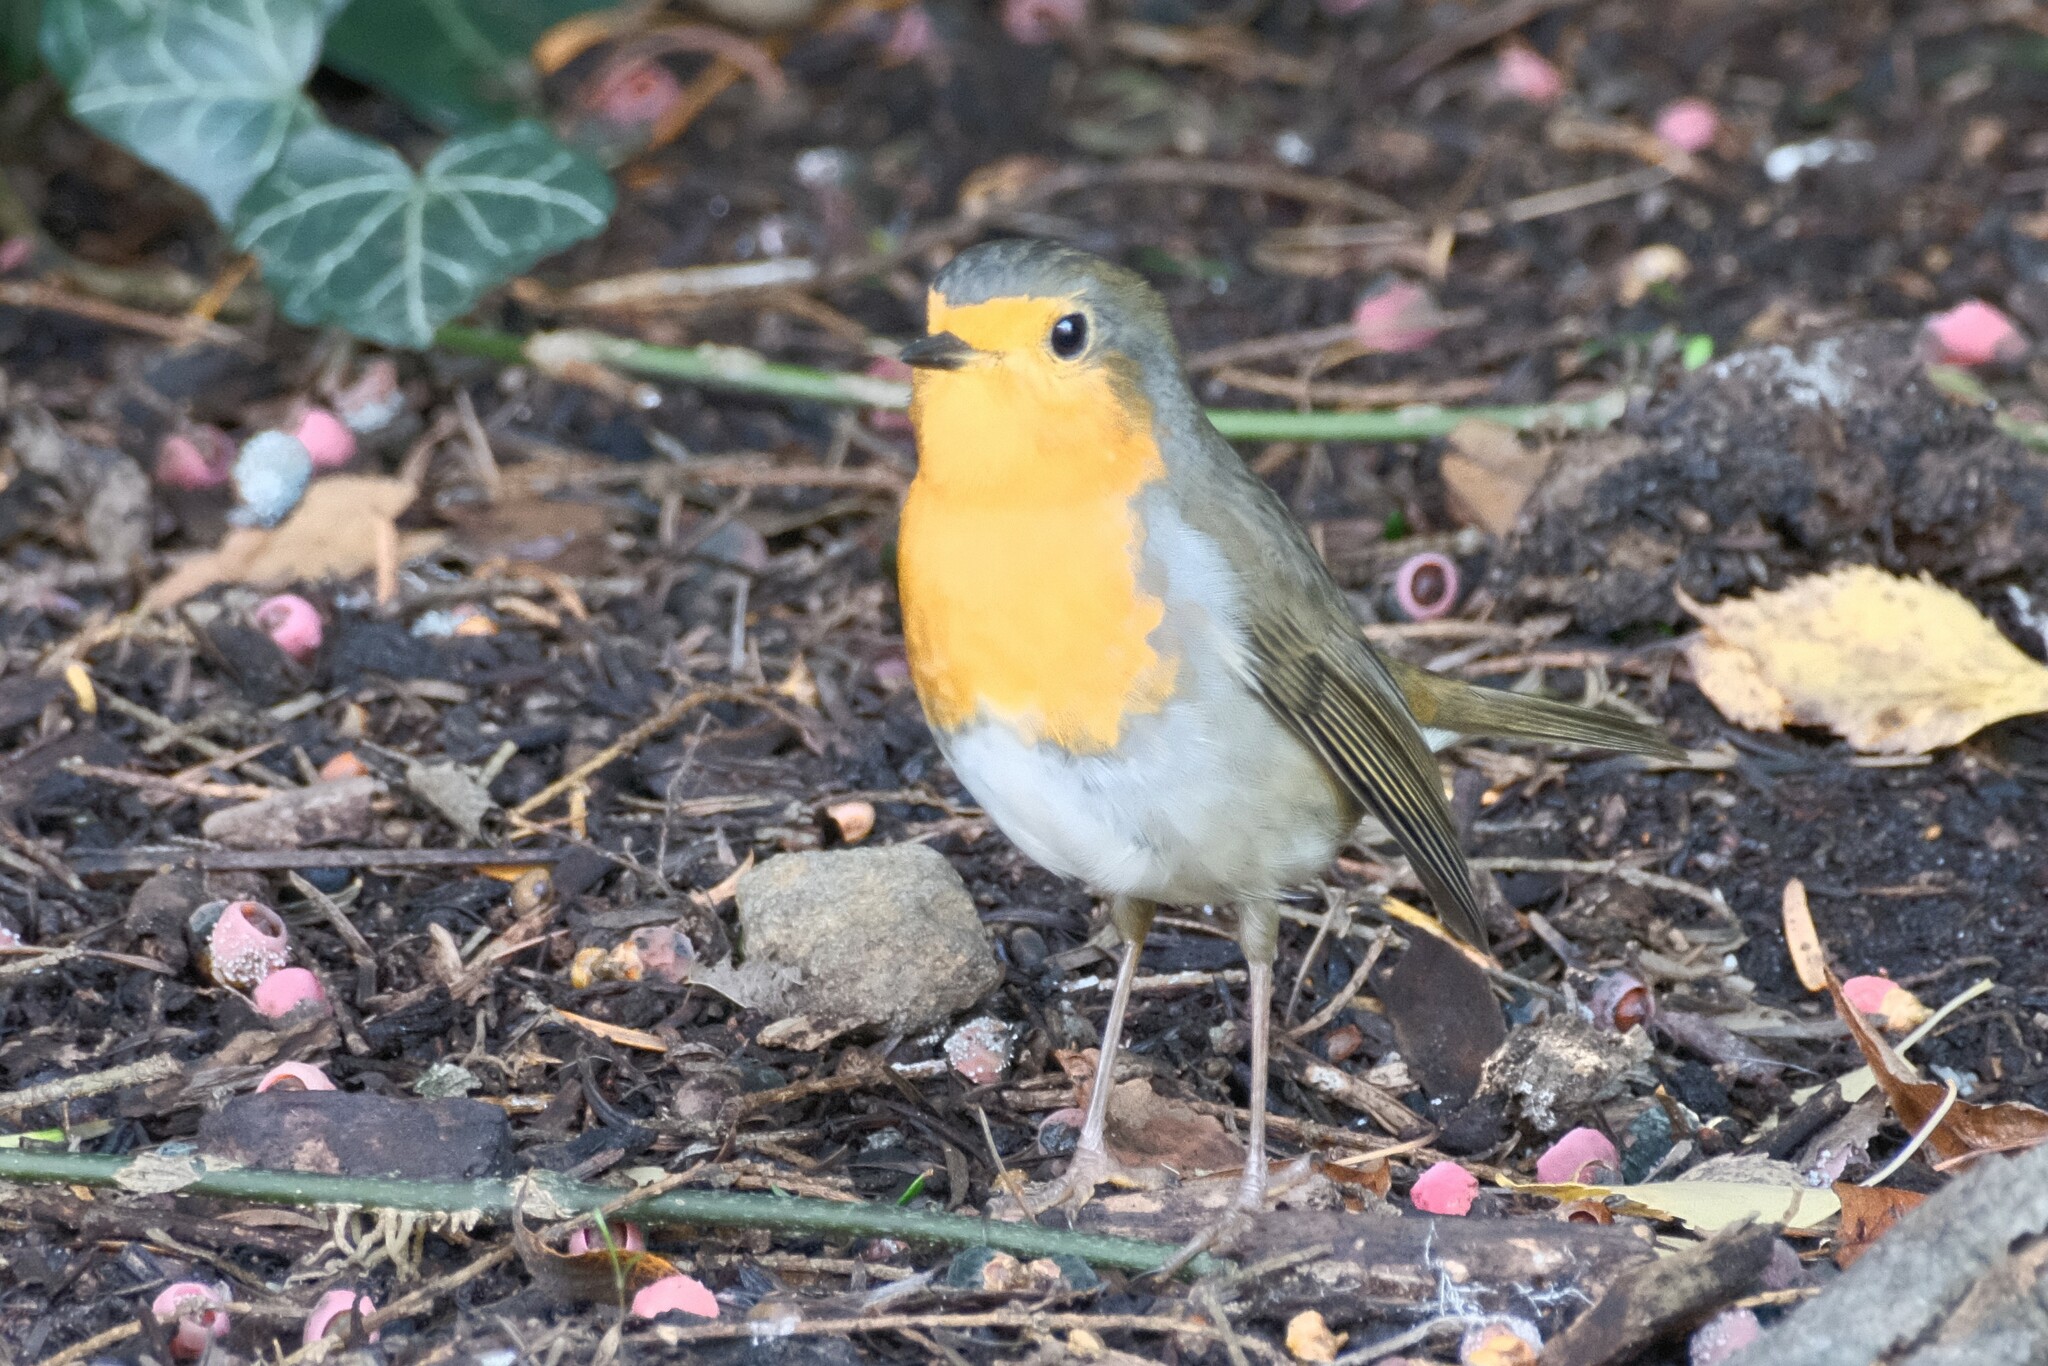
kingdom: Animalia
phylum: Chordata
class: Aves
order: Passeriformes
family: Muscicapidae
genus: Erithacus
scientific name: Erithacus rubecula
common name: European robin
